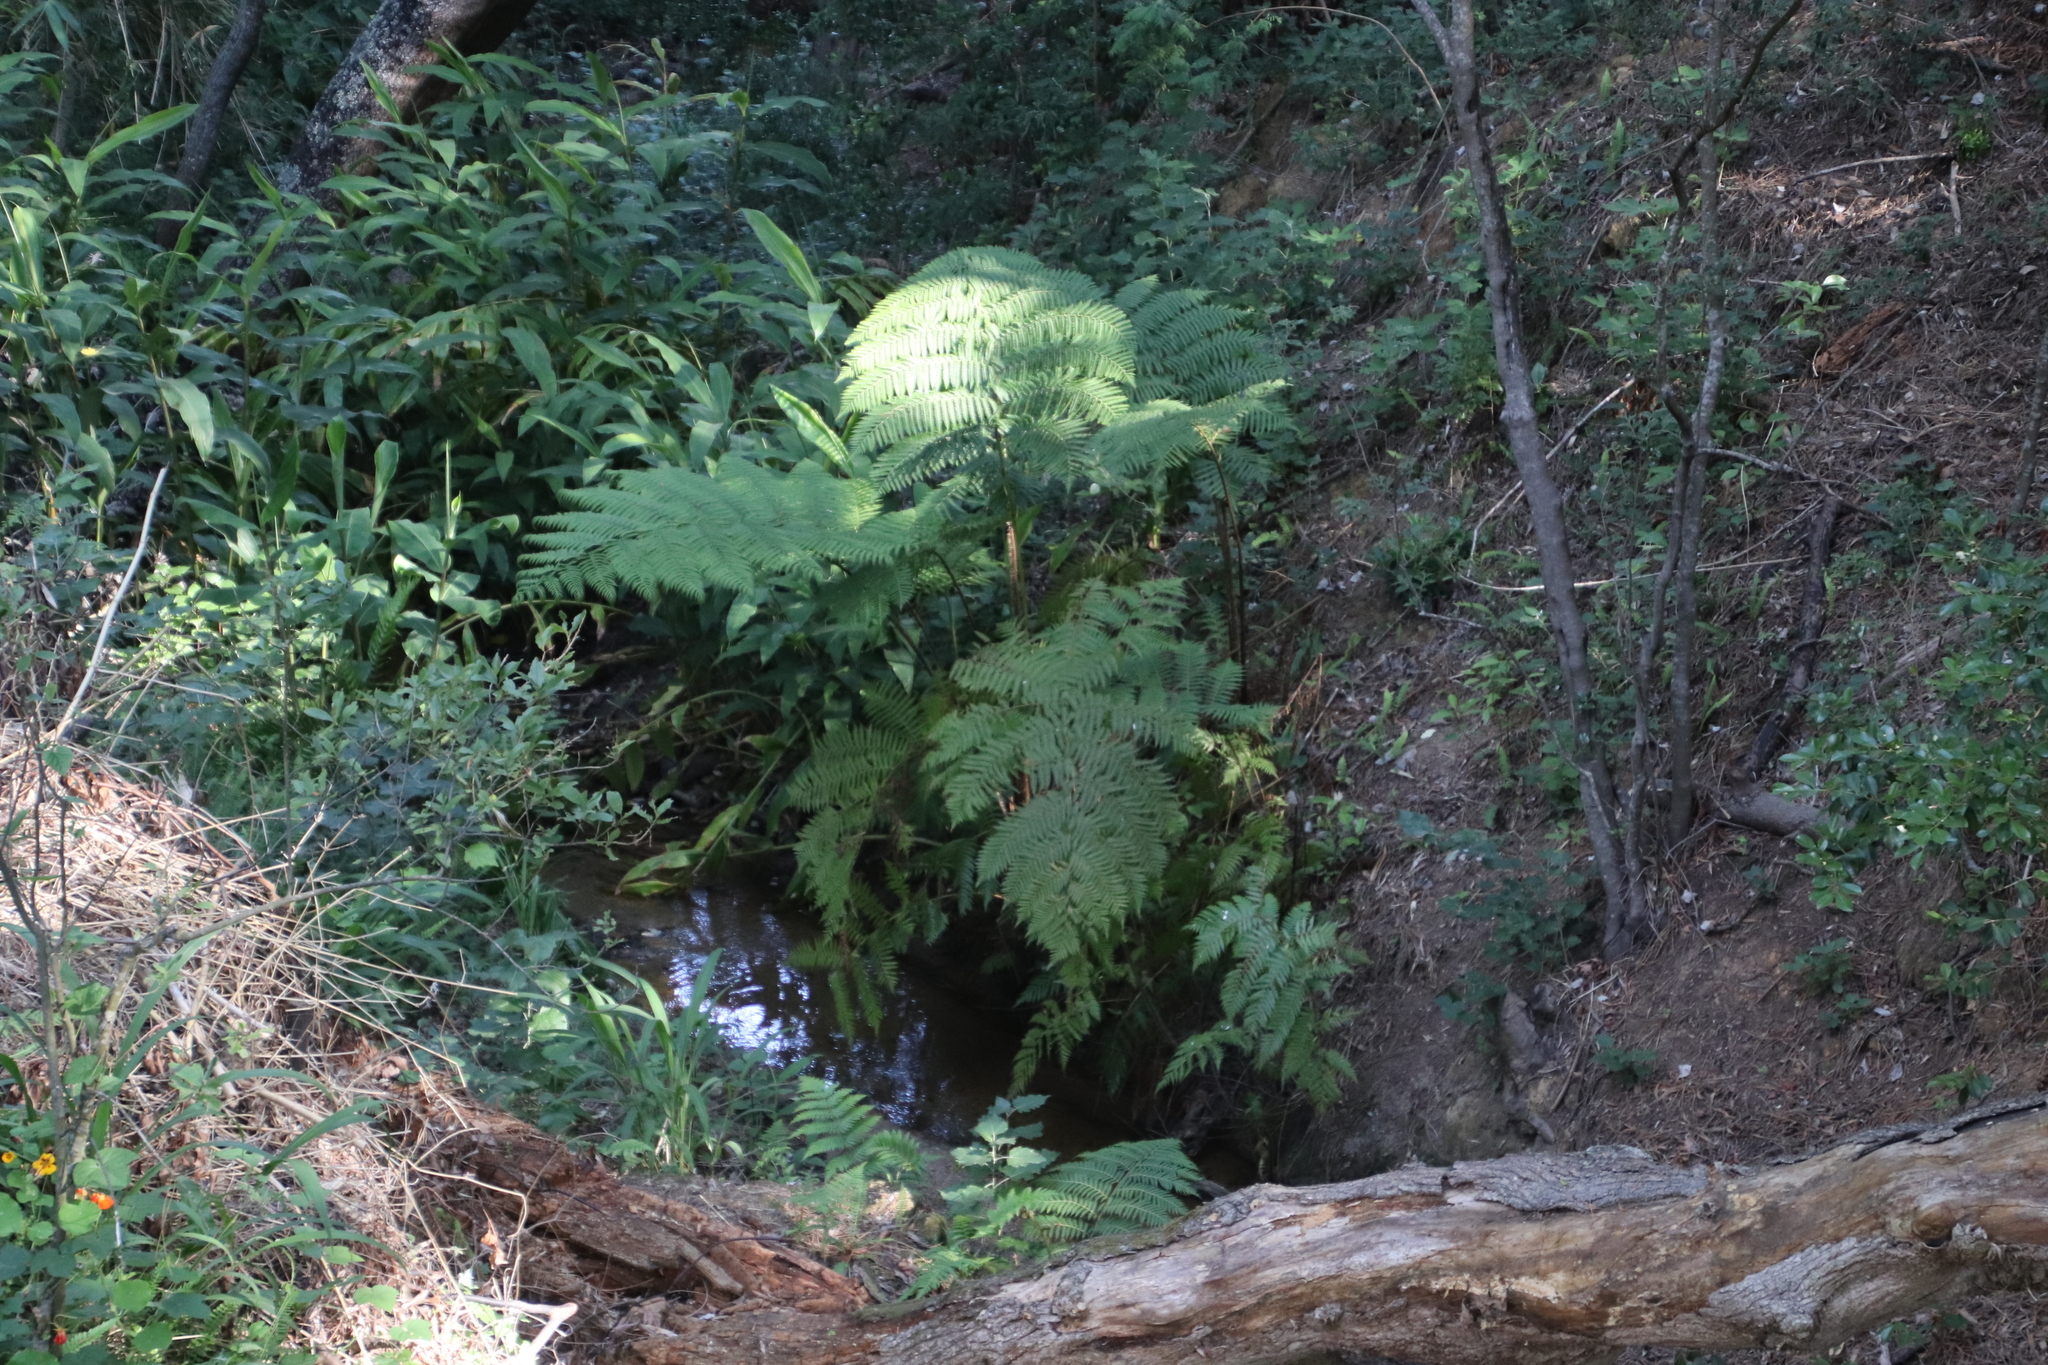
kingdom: Plantae
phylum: Tracheophyta
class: Polypodiopsida
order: Cyatheales
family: Cyatheaceae
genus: Sphaeropteris
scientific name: Sphaeropteris cooperi
